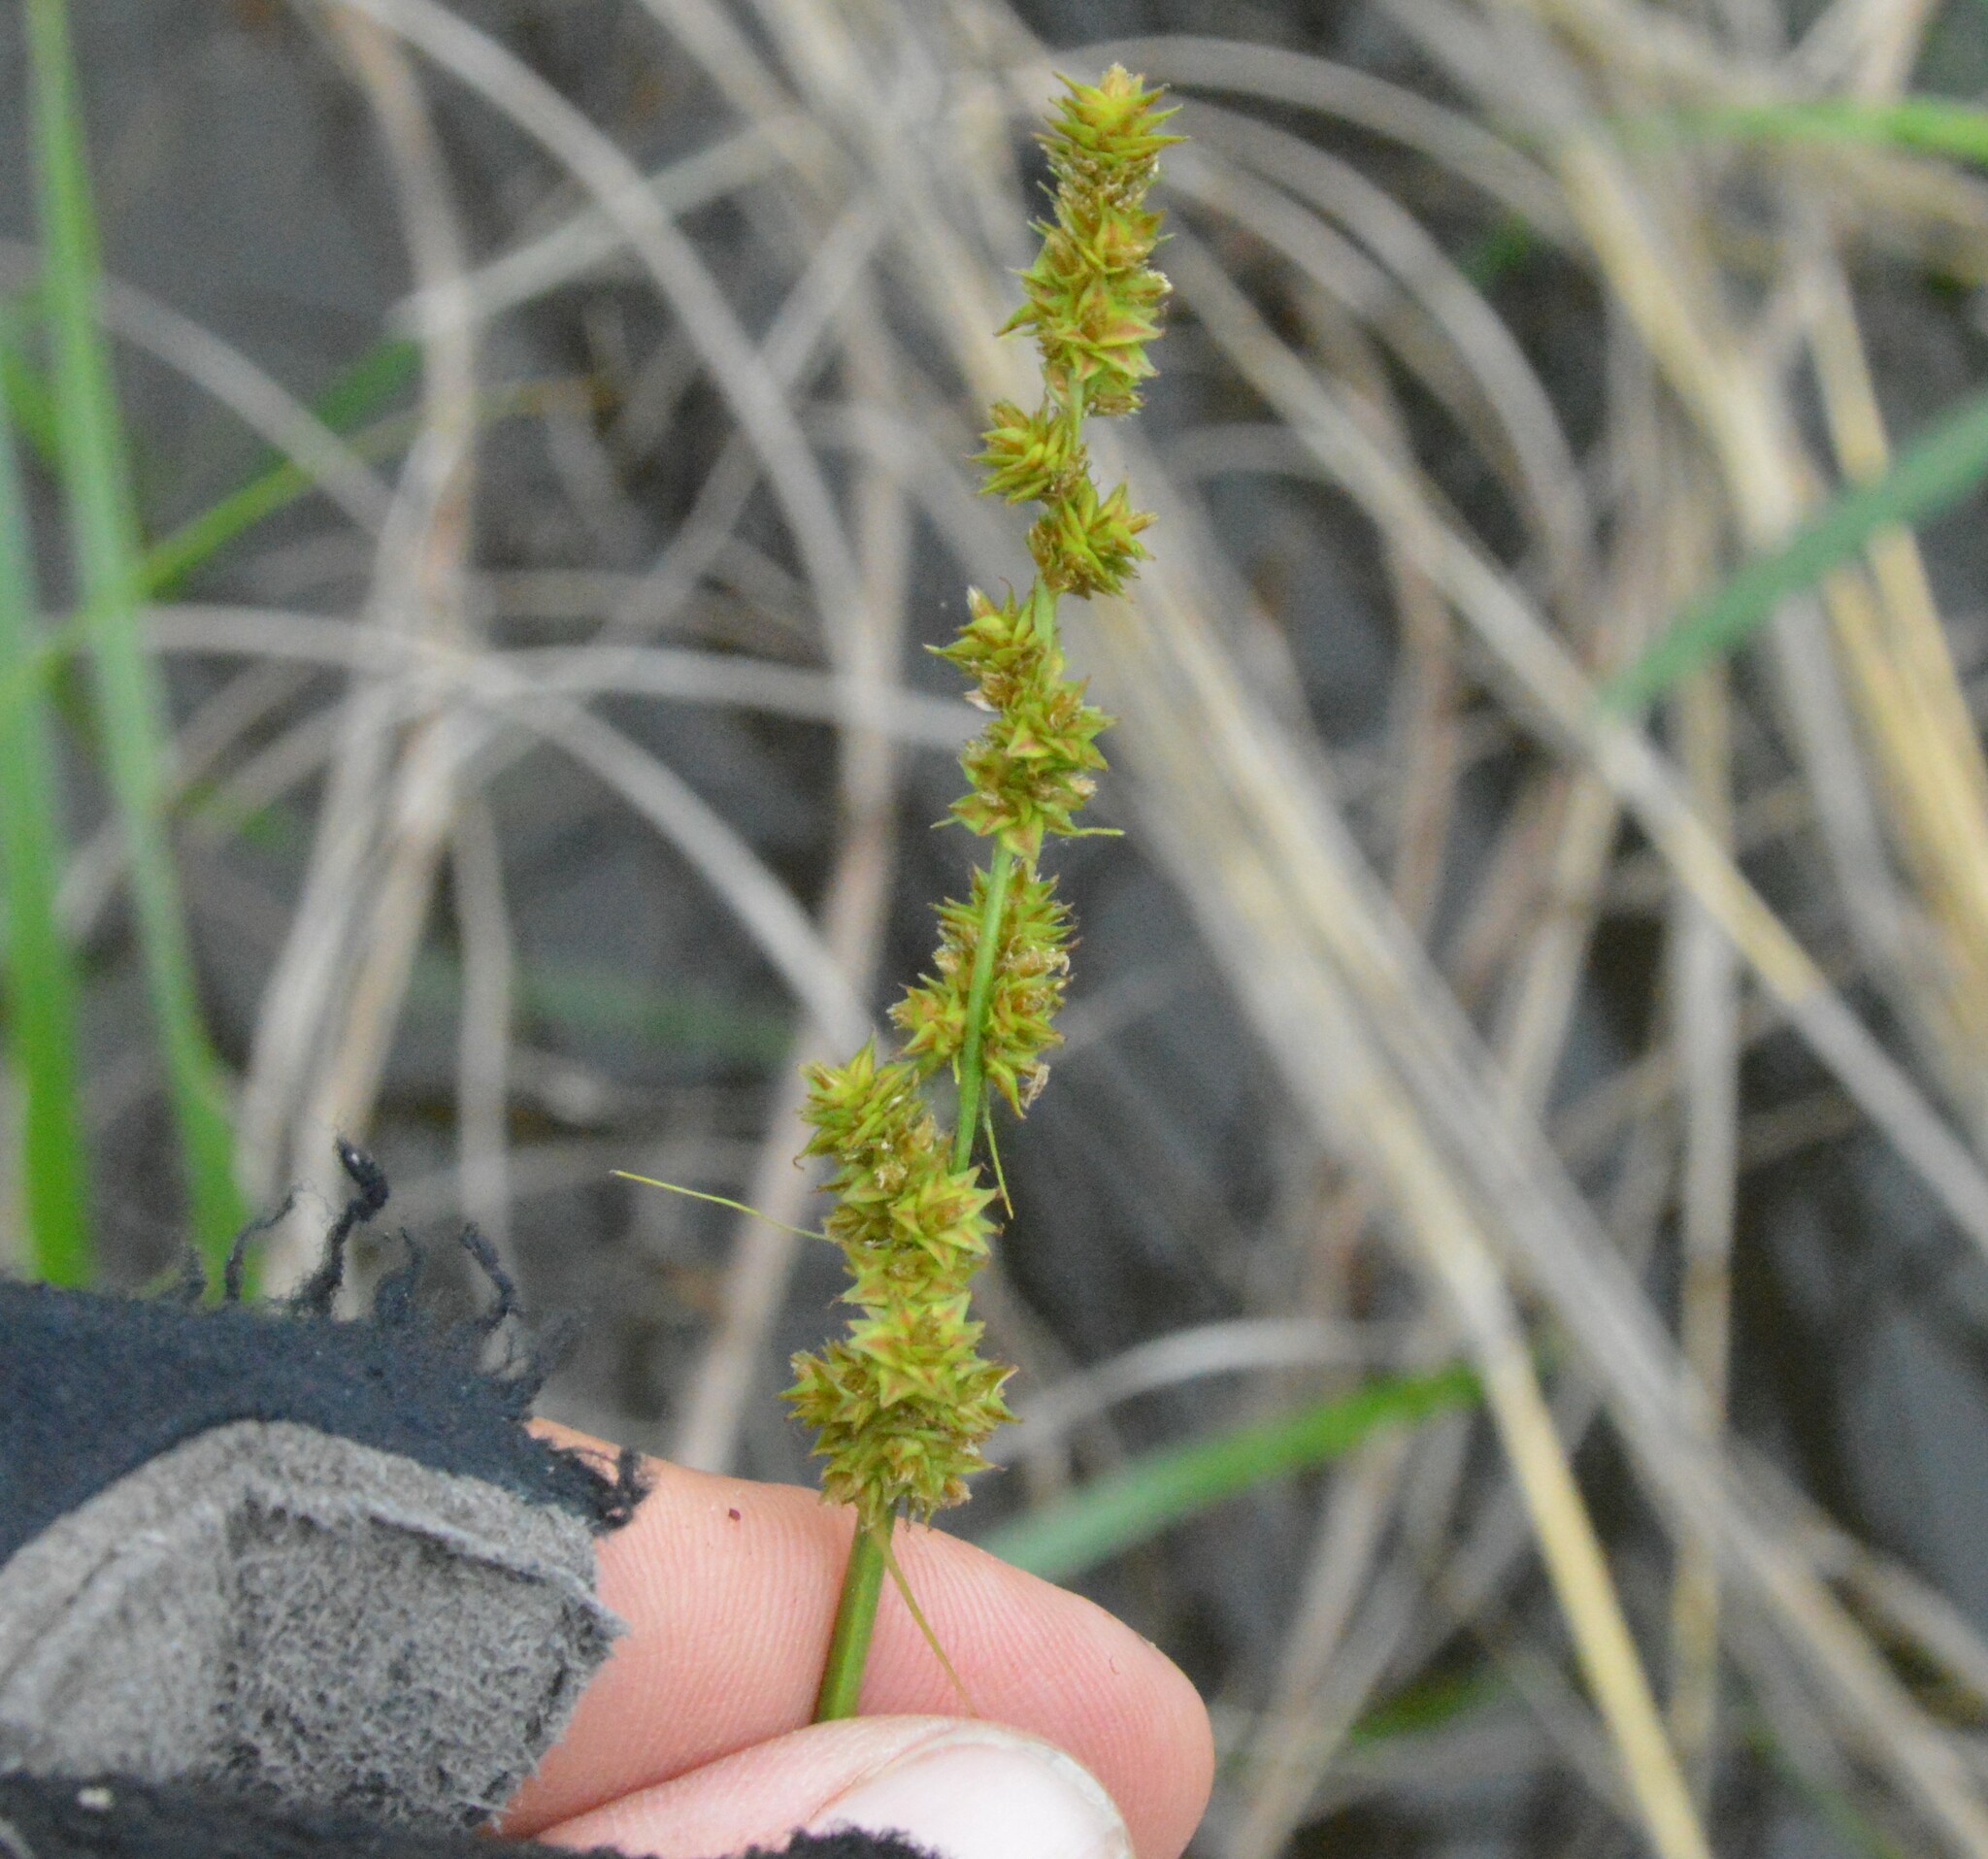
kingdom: Plantae
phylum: Tracheophyta
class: Liliopsida
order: Poales
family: Cyperaceae
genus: Carex
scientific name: Carex triangularis
